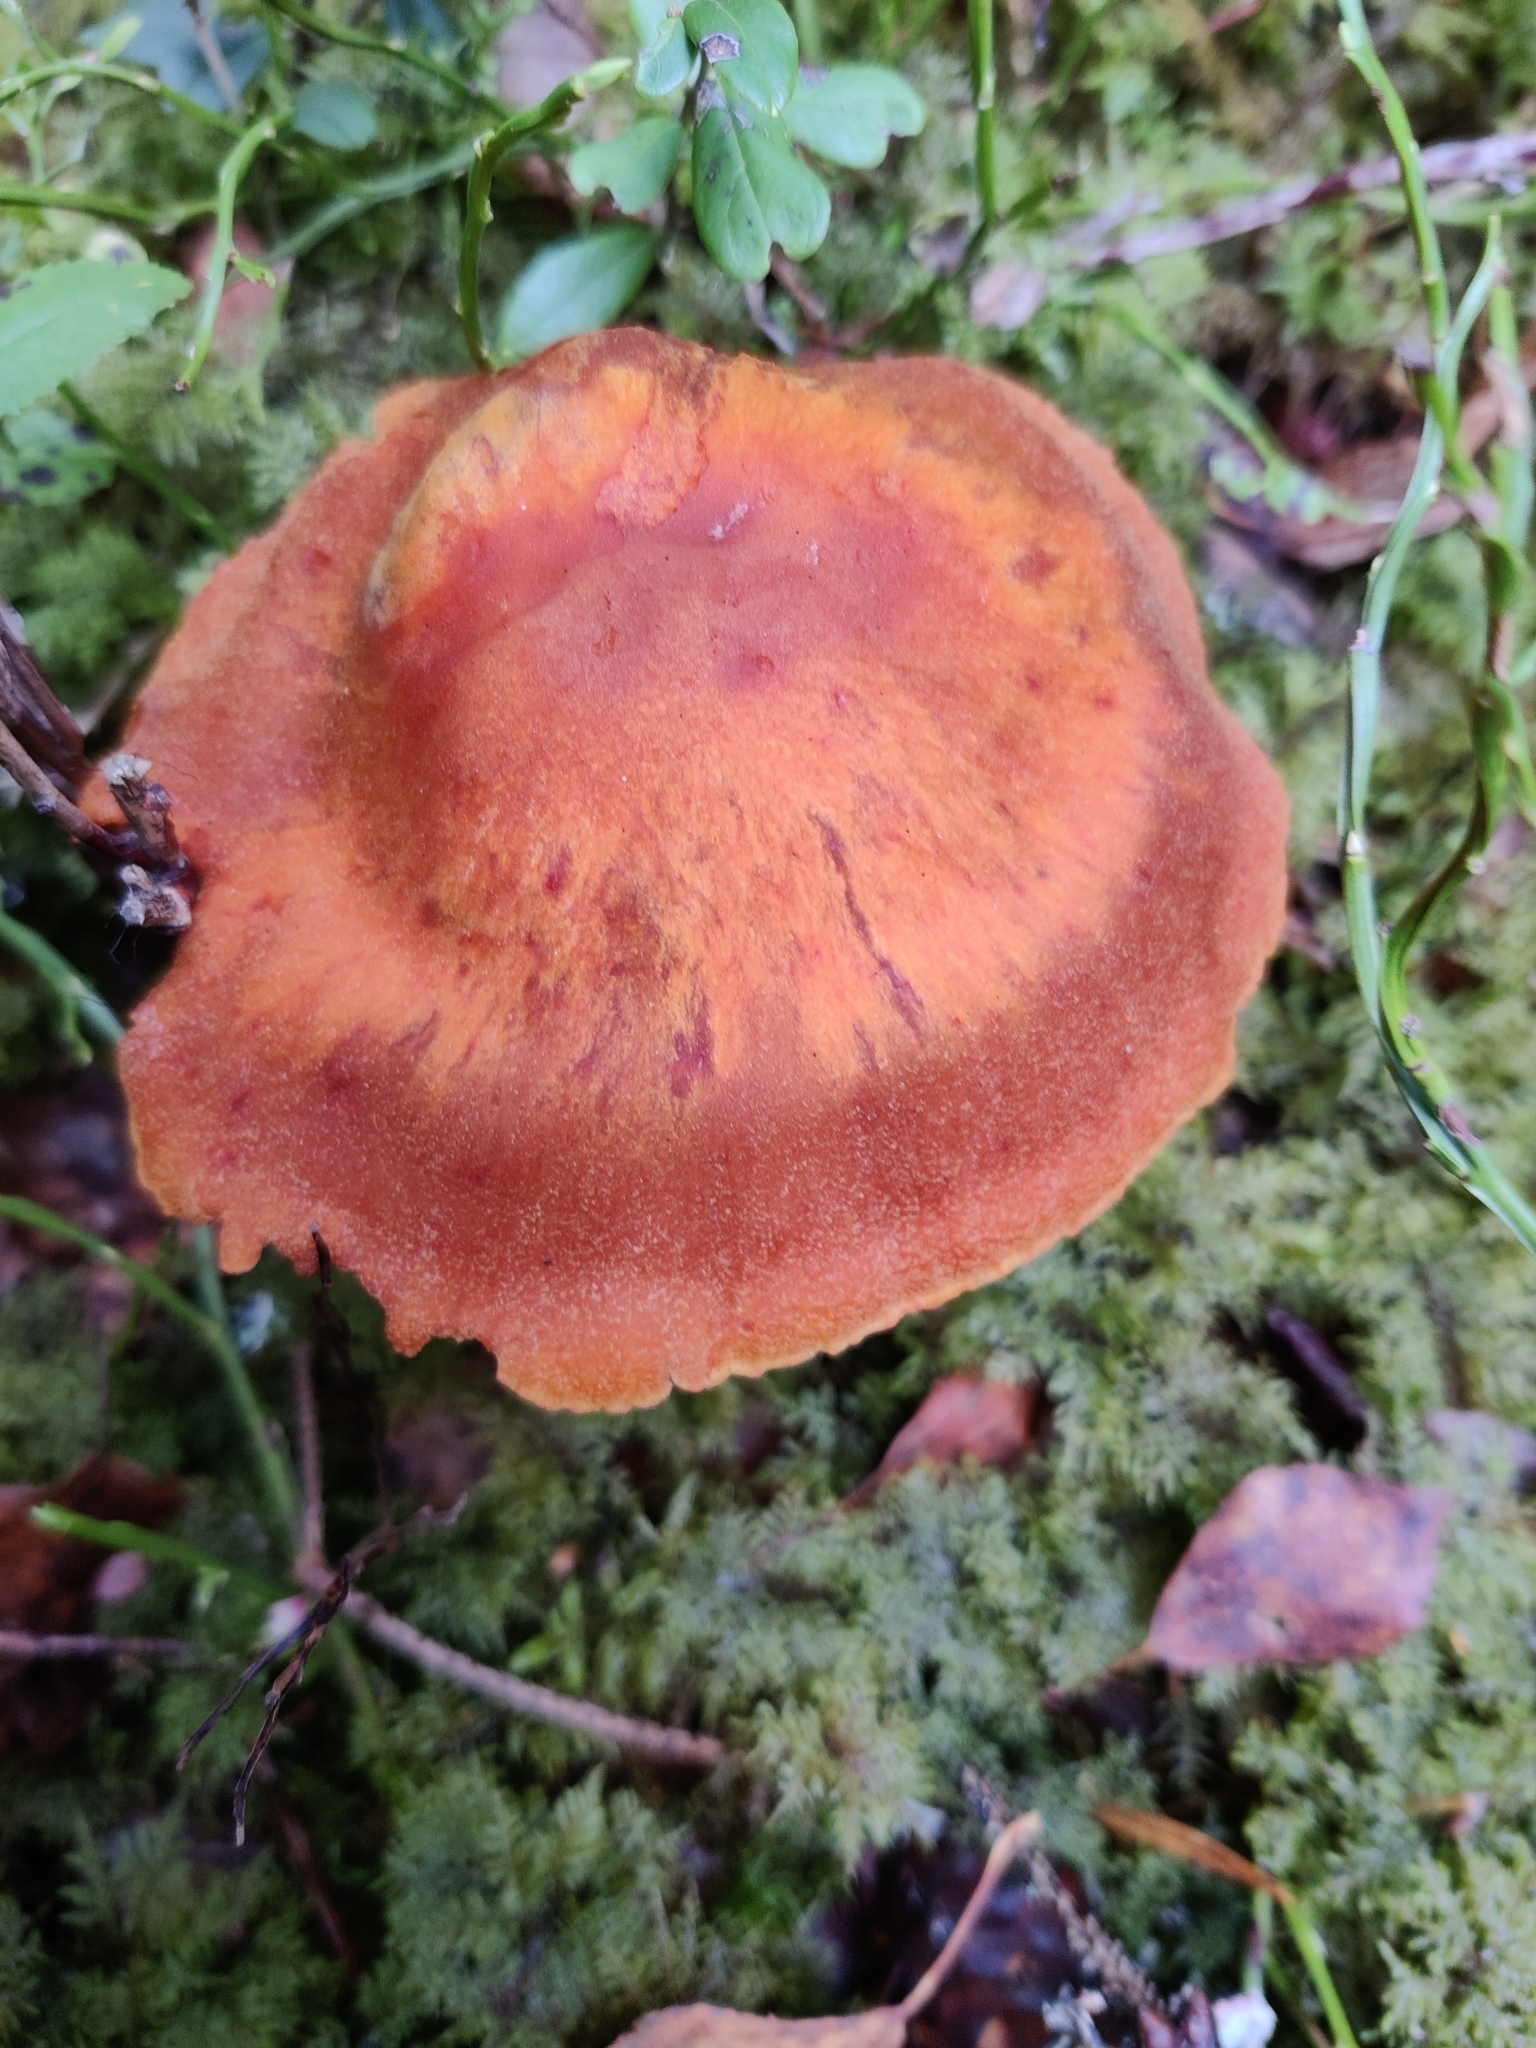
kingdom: Fungi
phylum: Basidiomycota
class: Agaricomycetes
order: Agaricales
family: Cortinariaceae
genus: Aureonarius
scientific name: Aureonarius limonius
